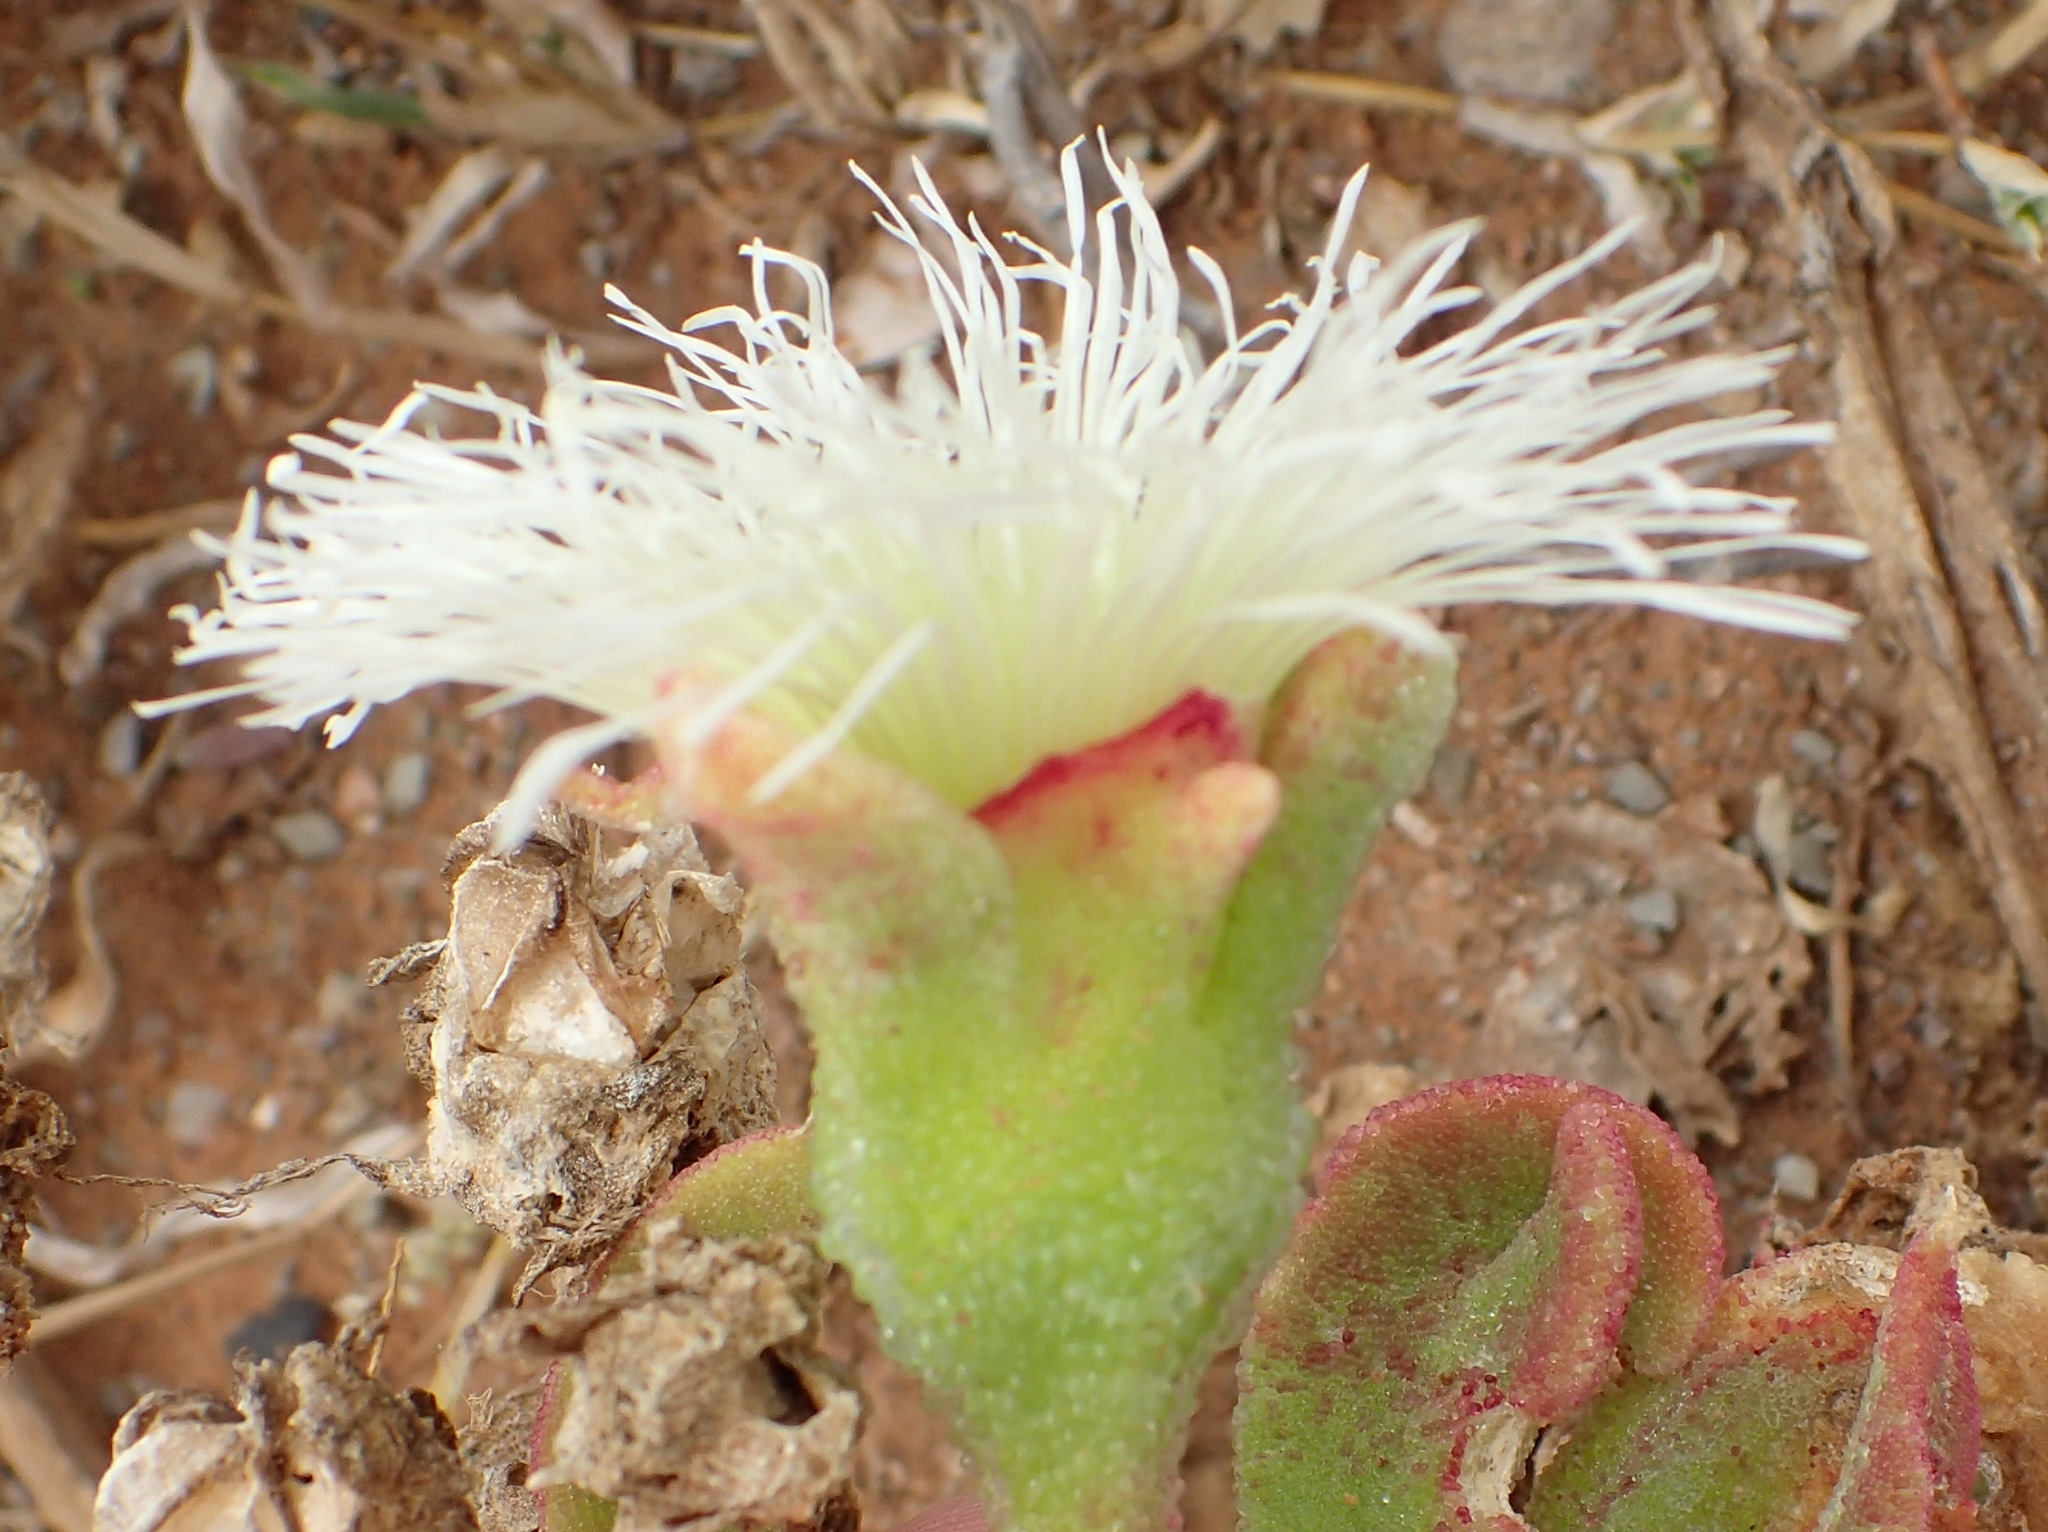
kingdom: Plantae
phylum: Tracheophyta
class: Magnoliopsida
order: Caryophyllales
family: Aizoaceae
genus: Mesembryanthemum
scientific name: Mesembryanthemum crystallinum
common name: Common iceplant
